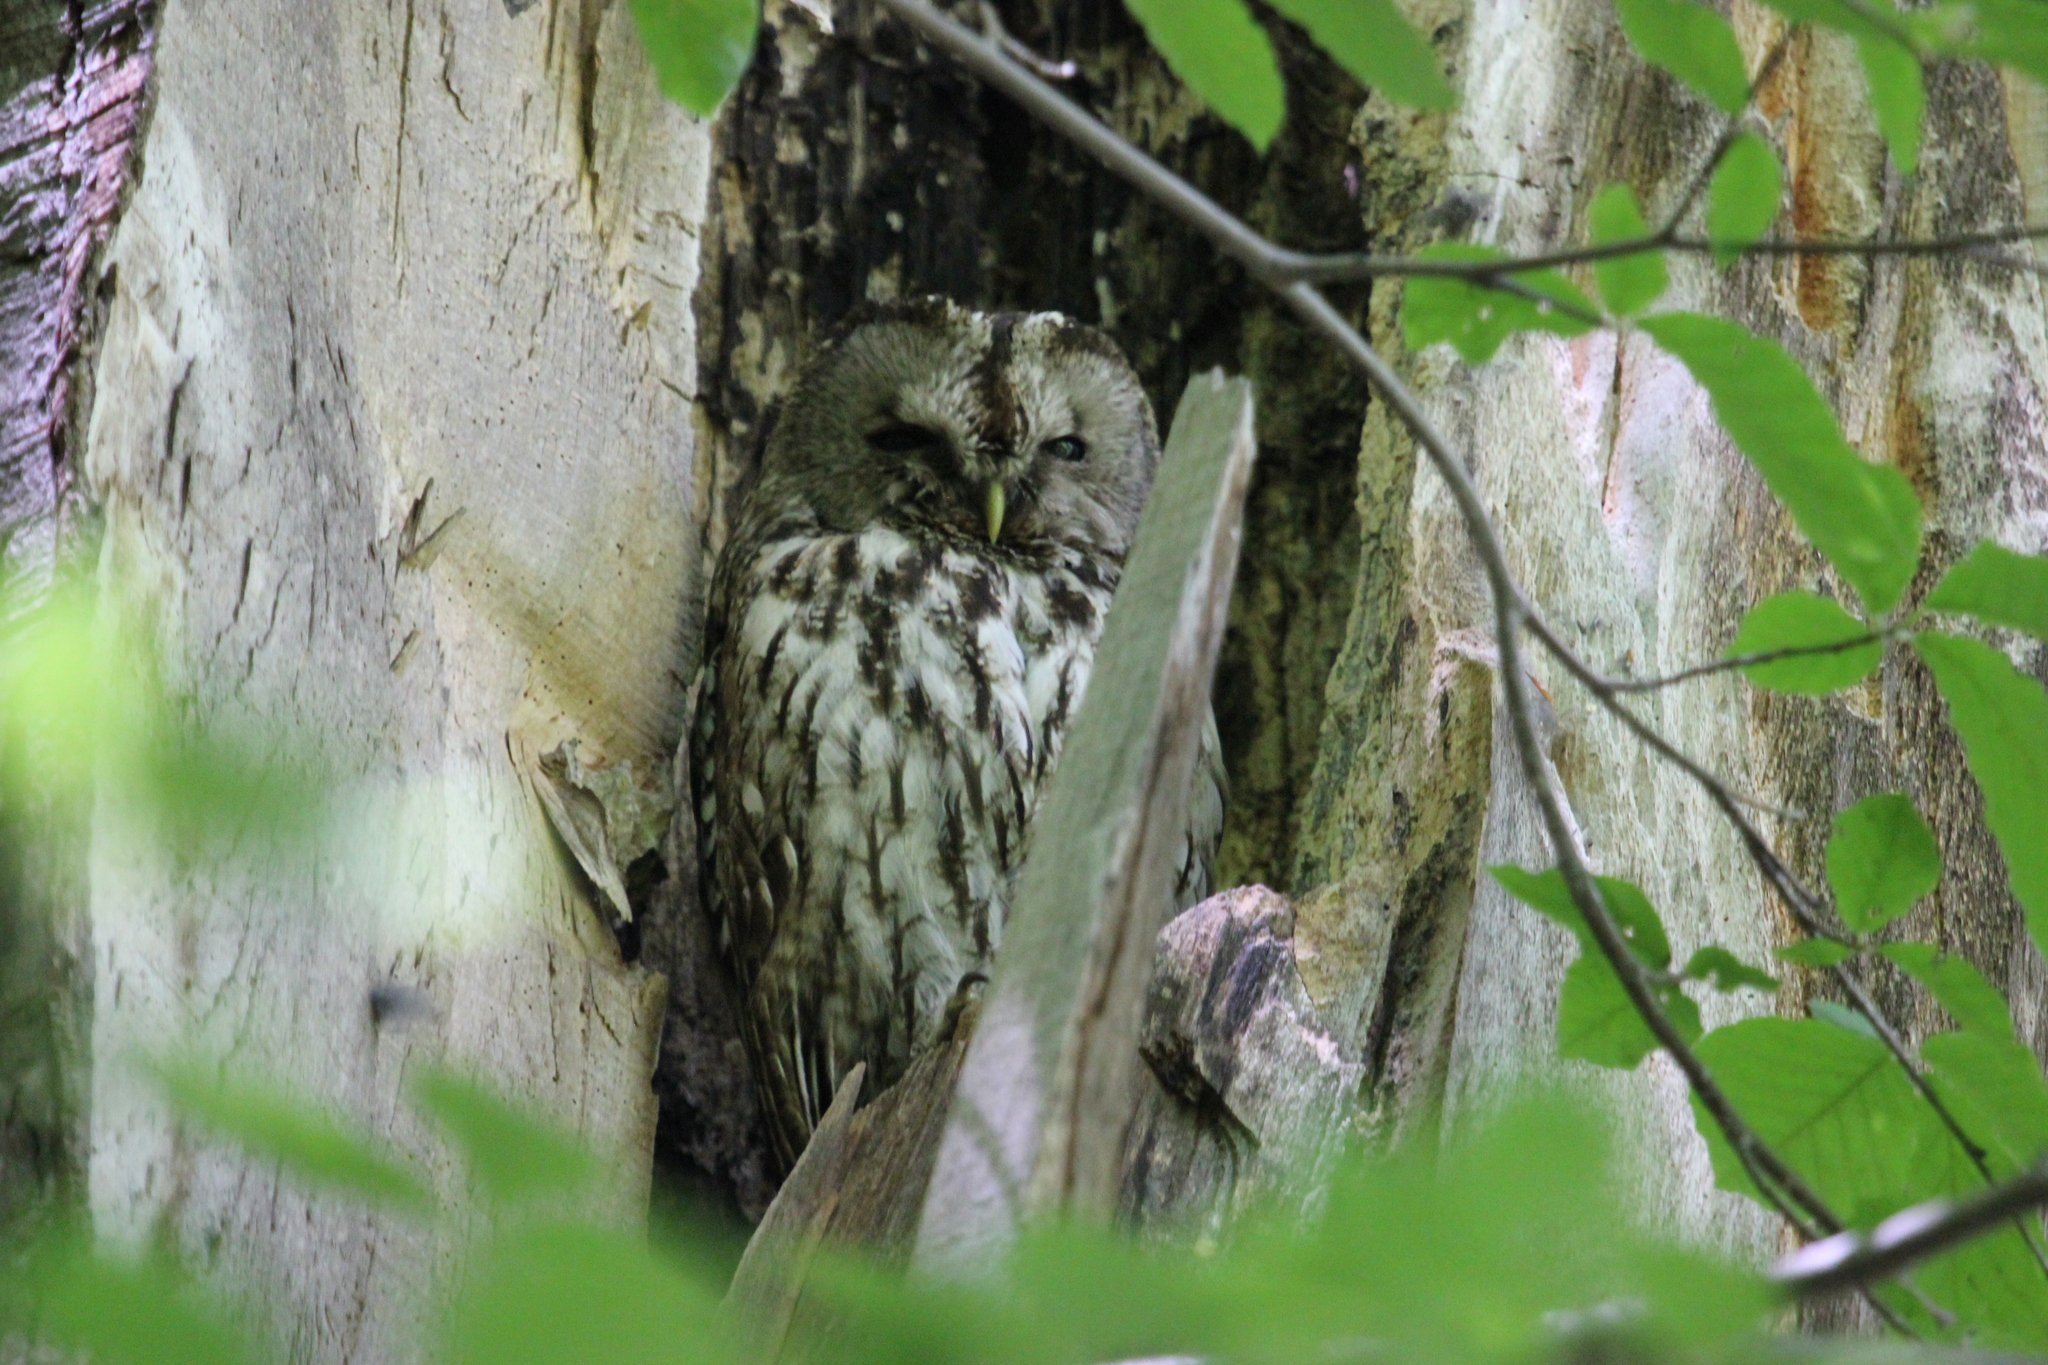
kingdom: Animalia
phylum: Chordata
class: Aves
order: Strigiformes
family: Strigidae
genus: Strix
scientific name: Strix aluco
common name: Tawny owl
